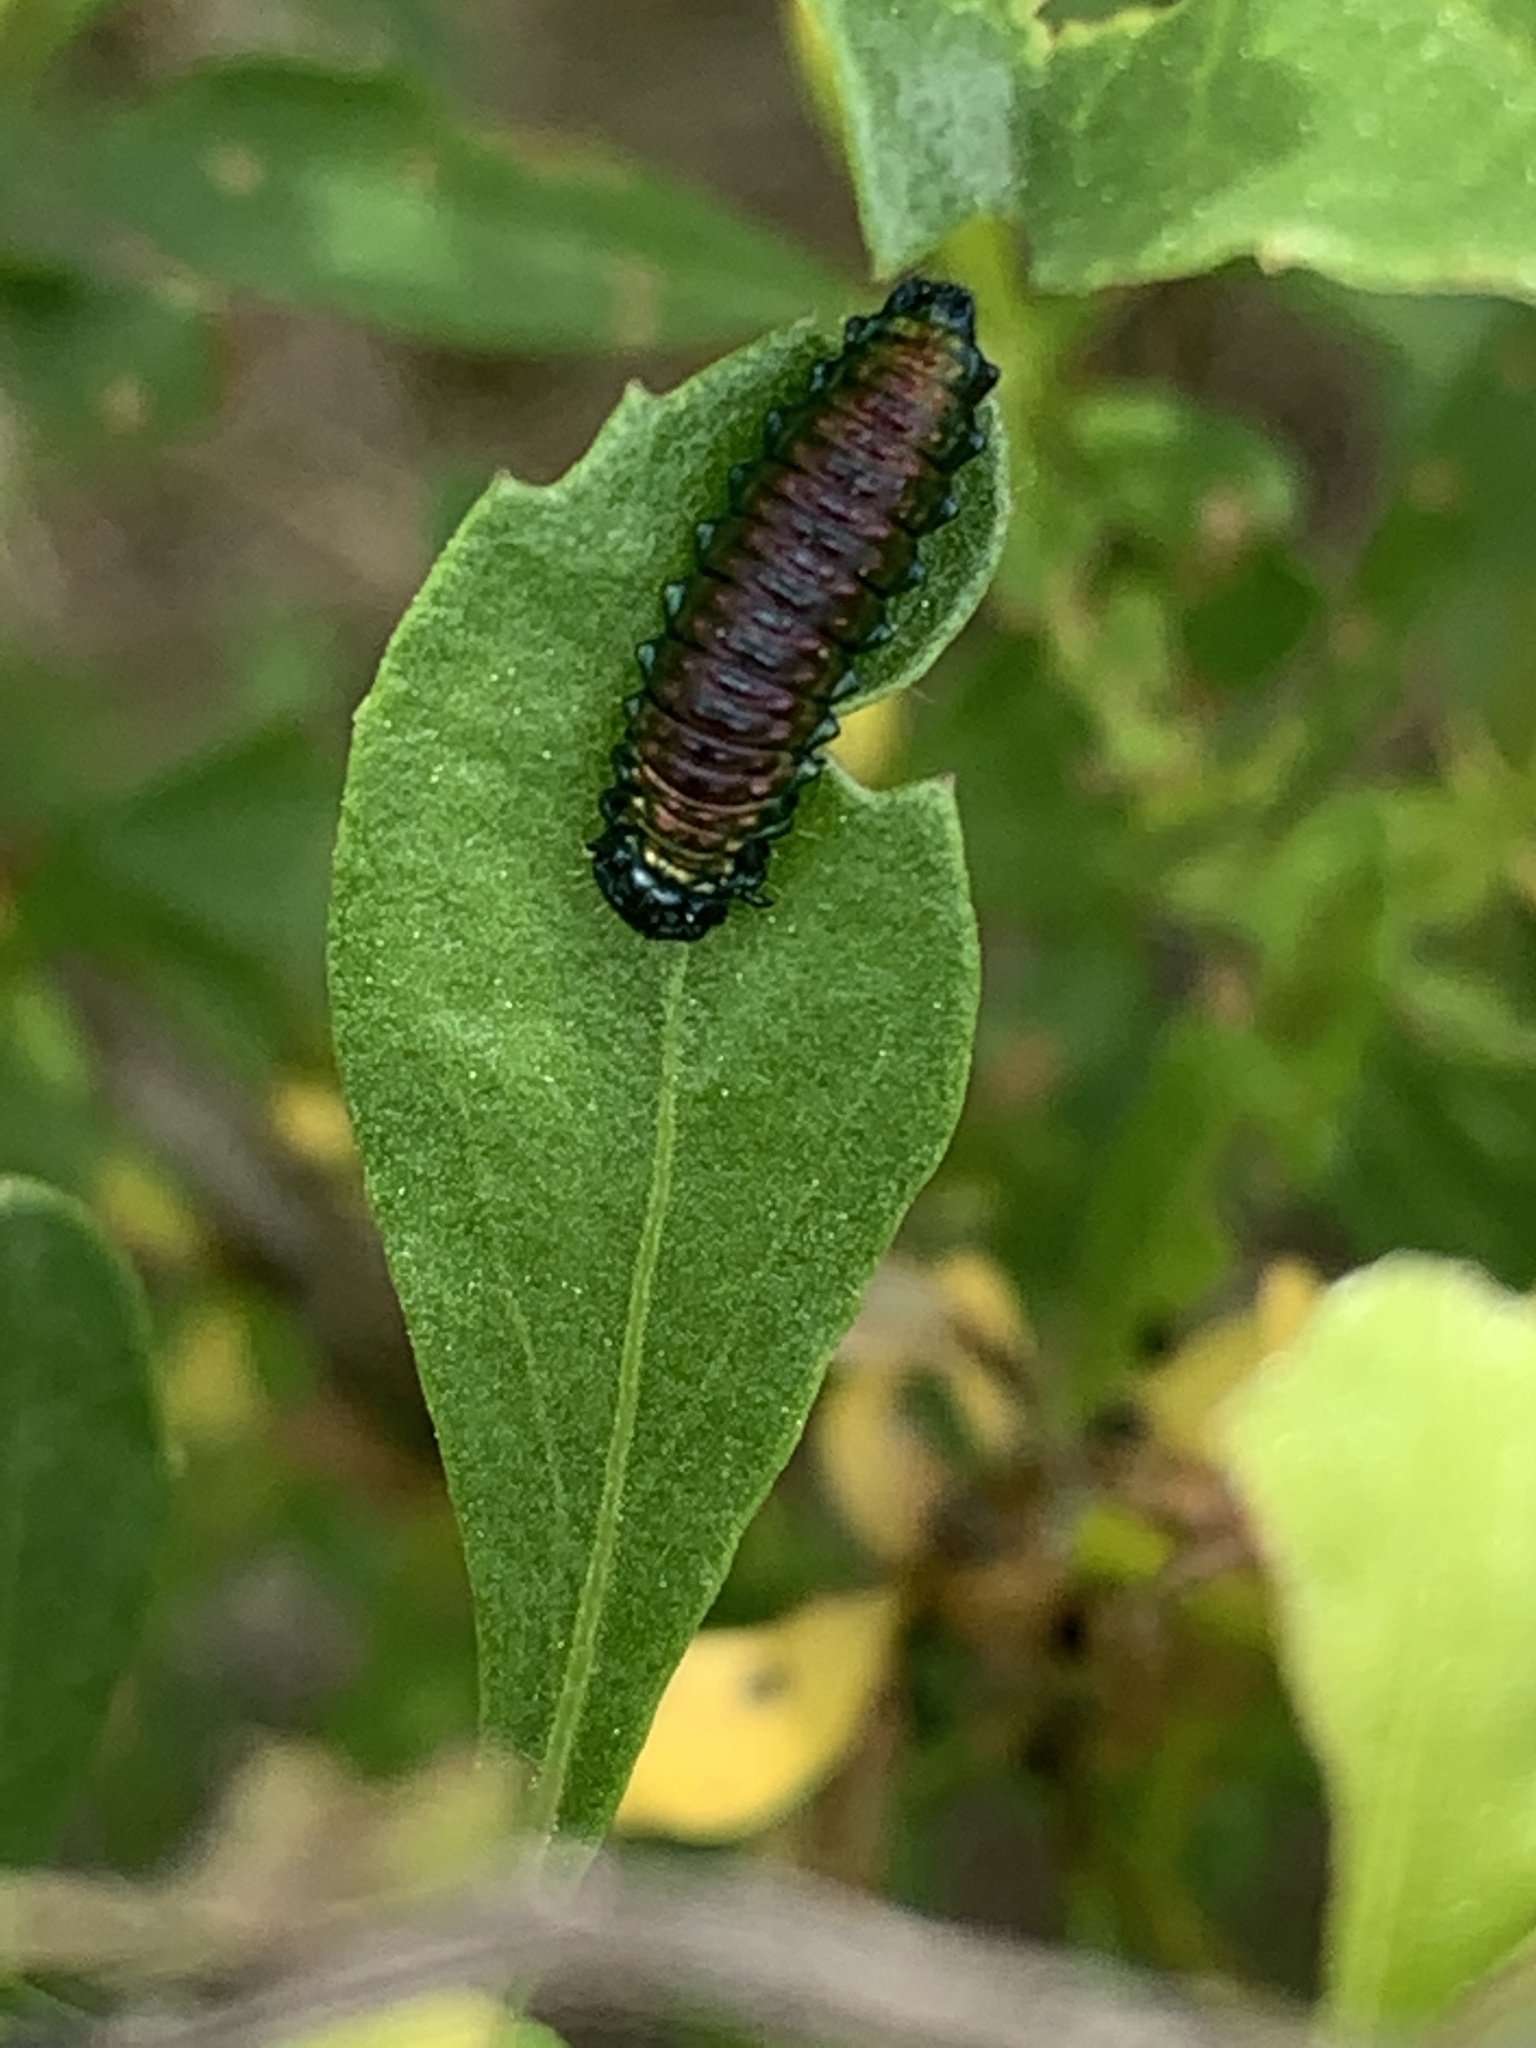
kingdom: Animalia
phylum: Arthropoda
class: Insecta
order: Coleoptera
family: Chrysomelidae
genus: Trirhabda
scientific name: Trirhabda bacharidis
